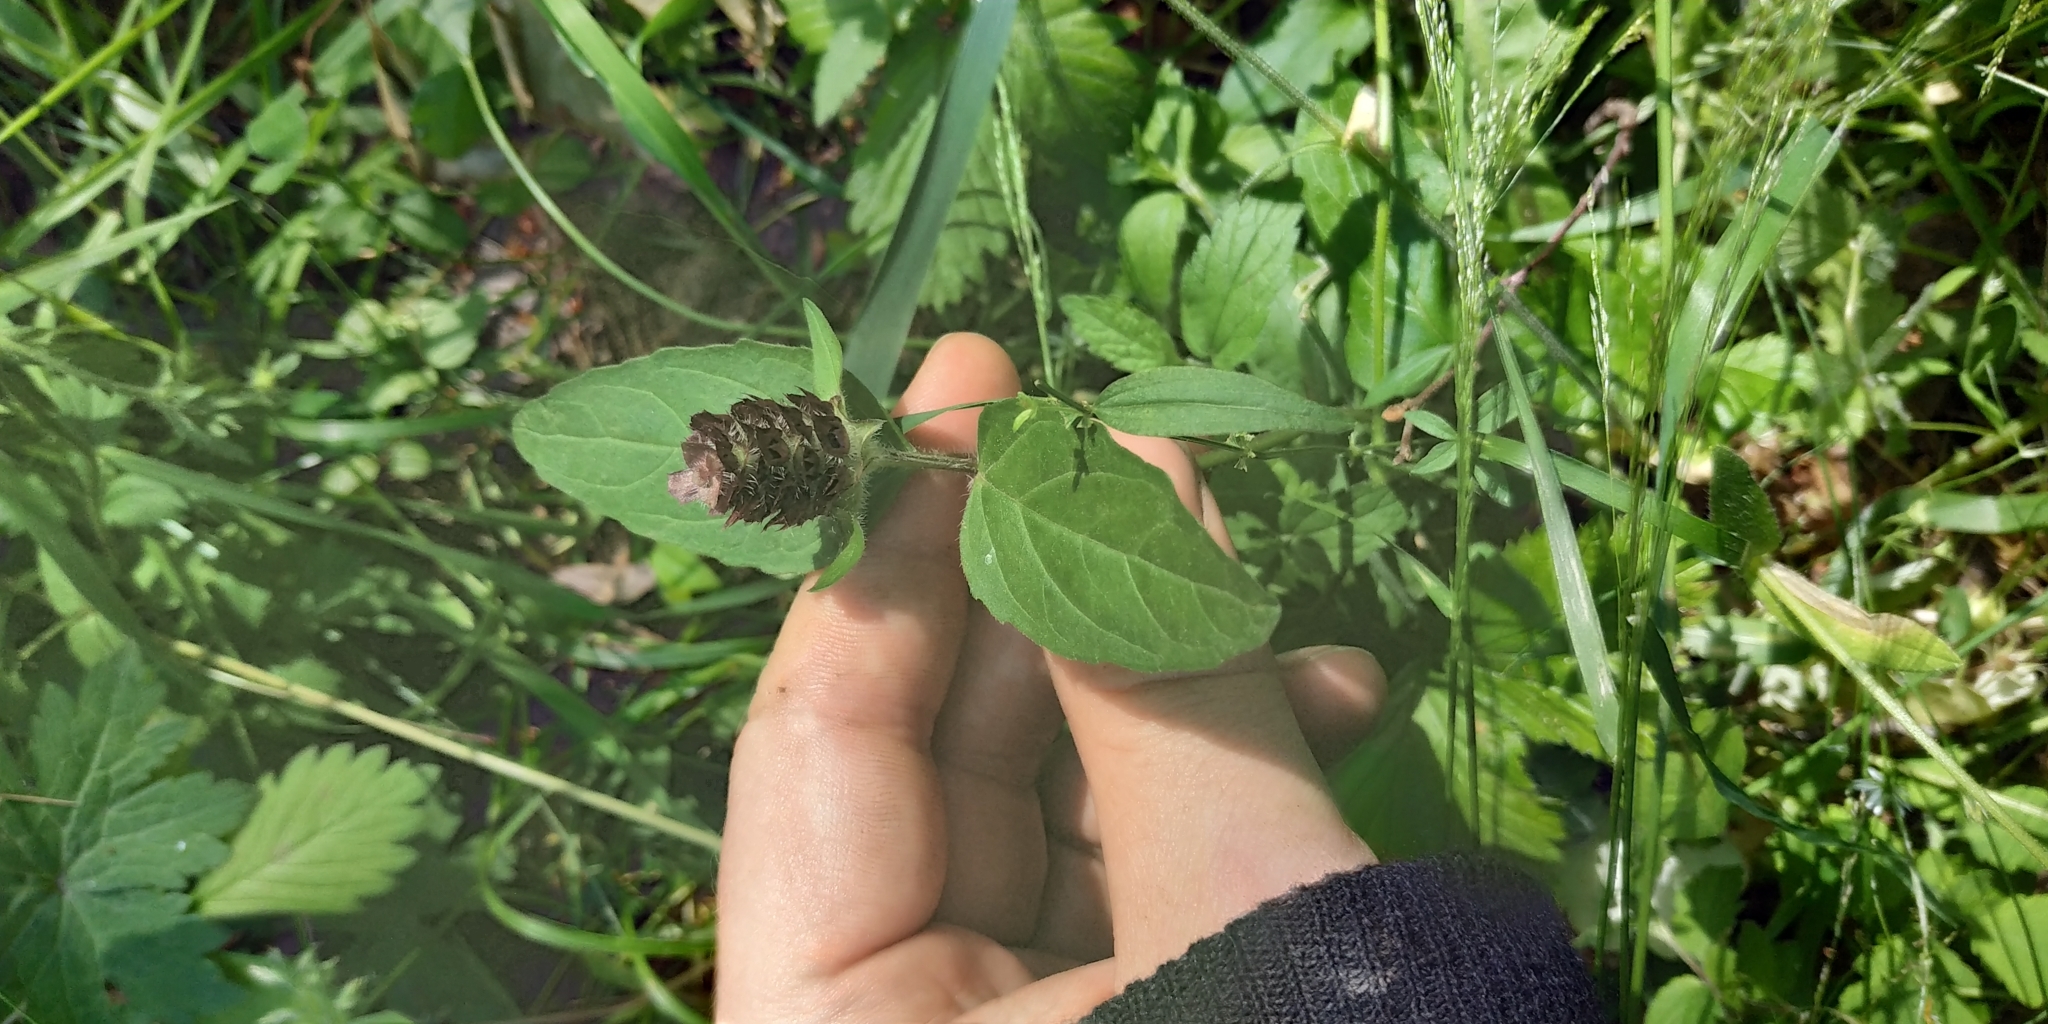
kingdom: Plantae
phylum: Tracheophyta
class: Magnoliopsida
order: Lamiales
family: Lamiaceae
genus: Prunella
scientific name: Prunella vulgaris
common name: Heal-all
